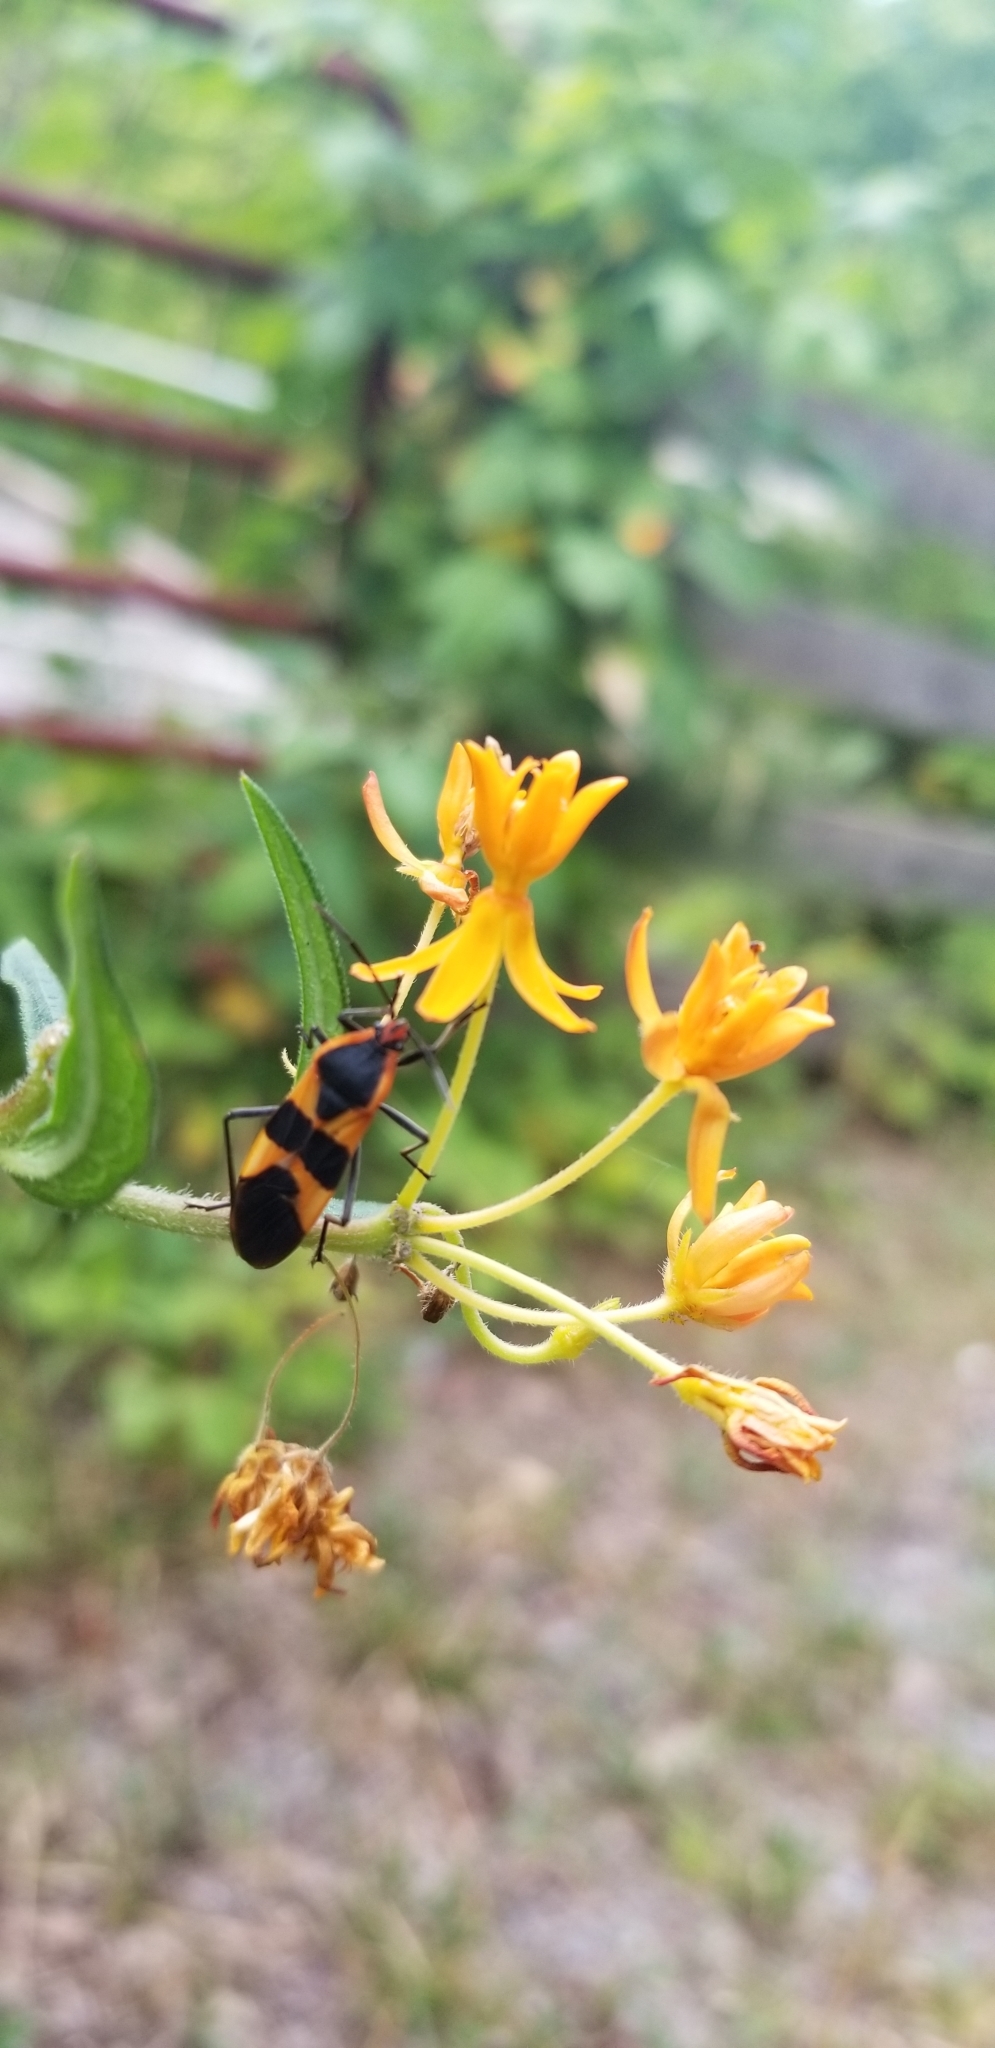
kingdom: Animalia
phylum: Arthropoda
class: Insecta
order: Hemiptera
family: Lygaeidae
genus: Oncopeltus
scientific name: Oncopeltus fasciatus
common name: Large milkweed bug
